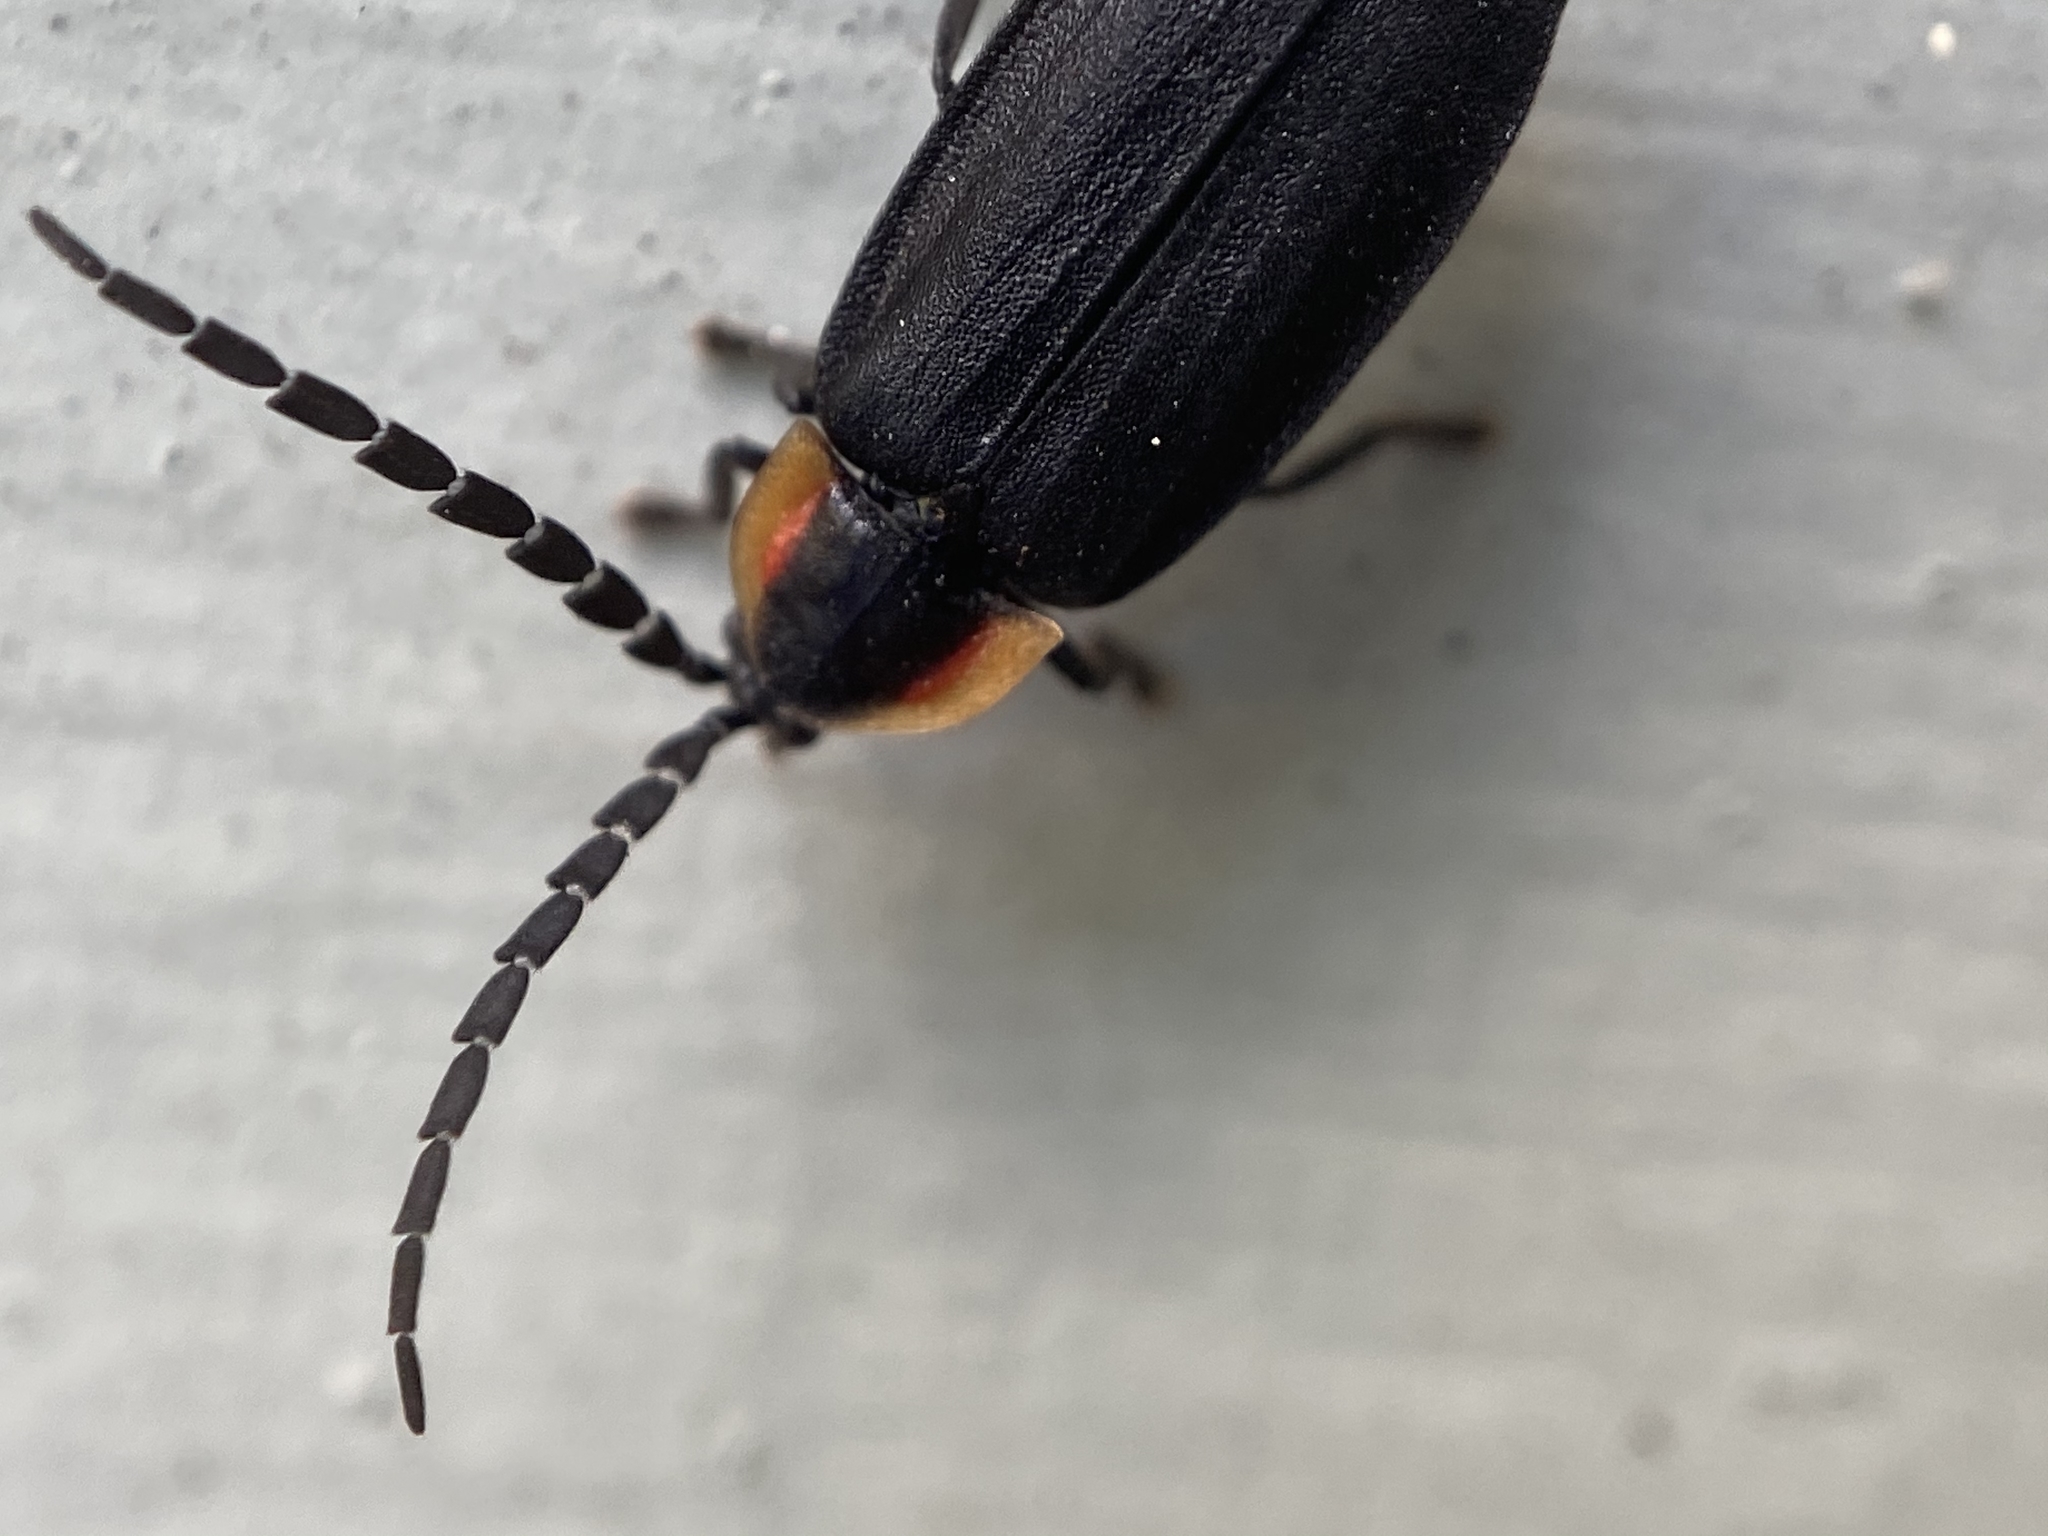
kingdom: Animalia
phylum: Arthropoda
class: Insecta
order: Coleoptera
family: Lampyridae
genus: Lucidota
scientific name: Lucidota atra
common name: Black firefly
